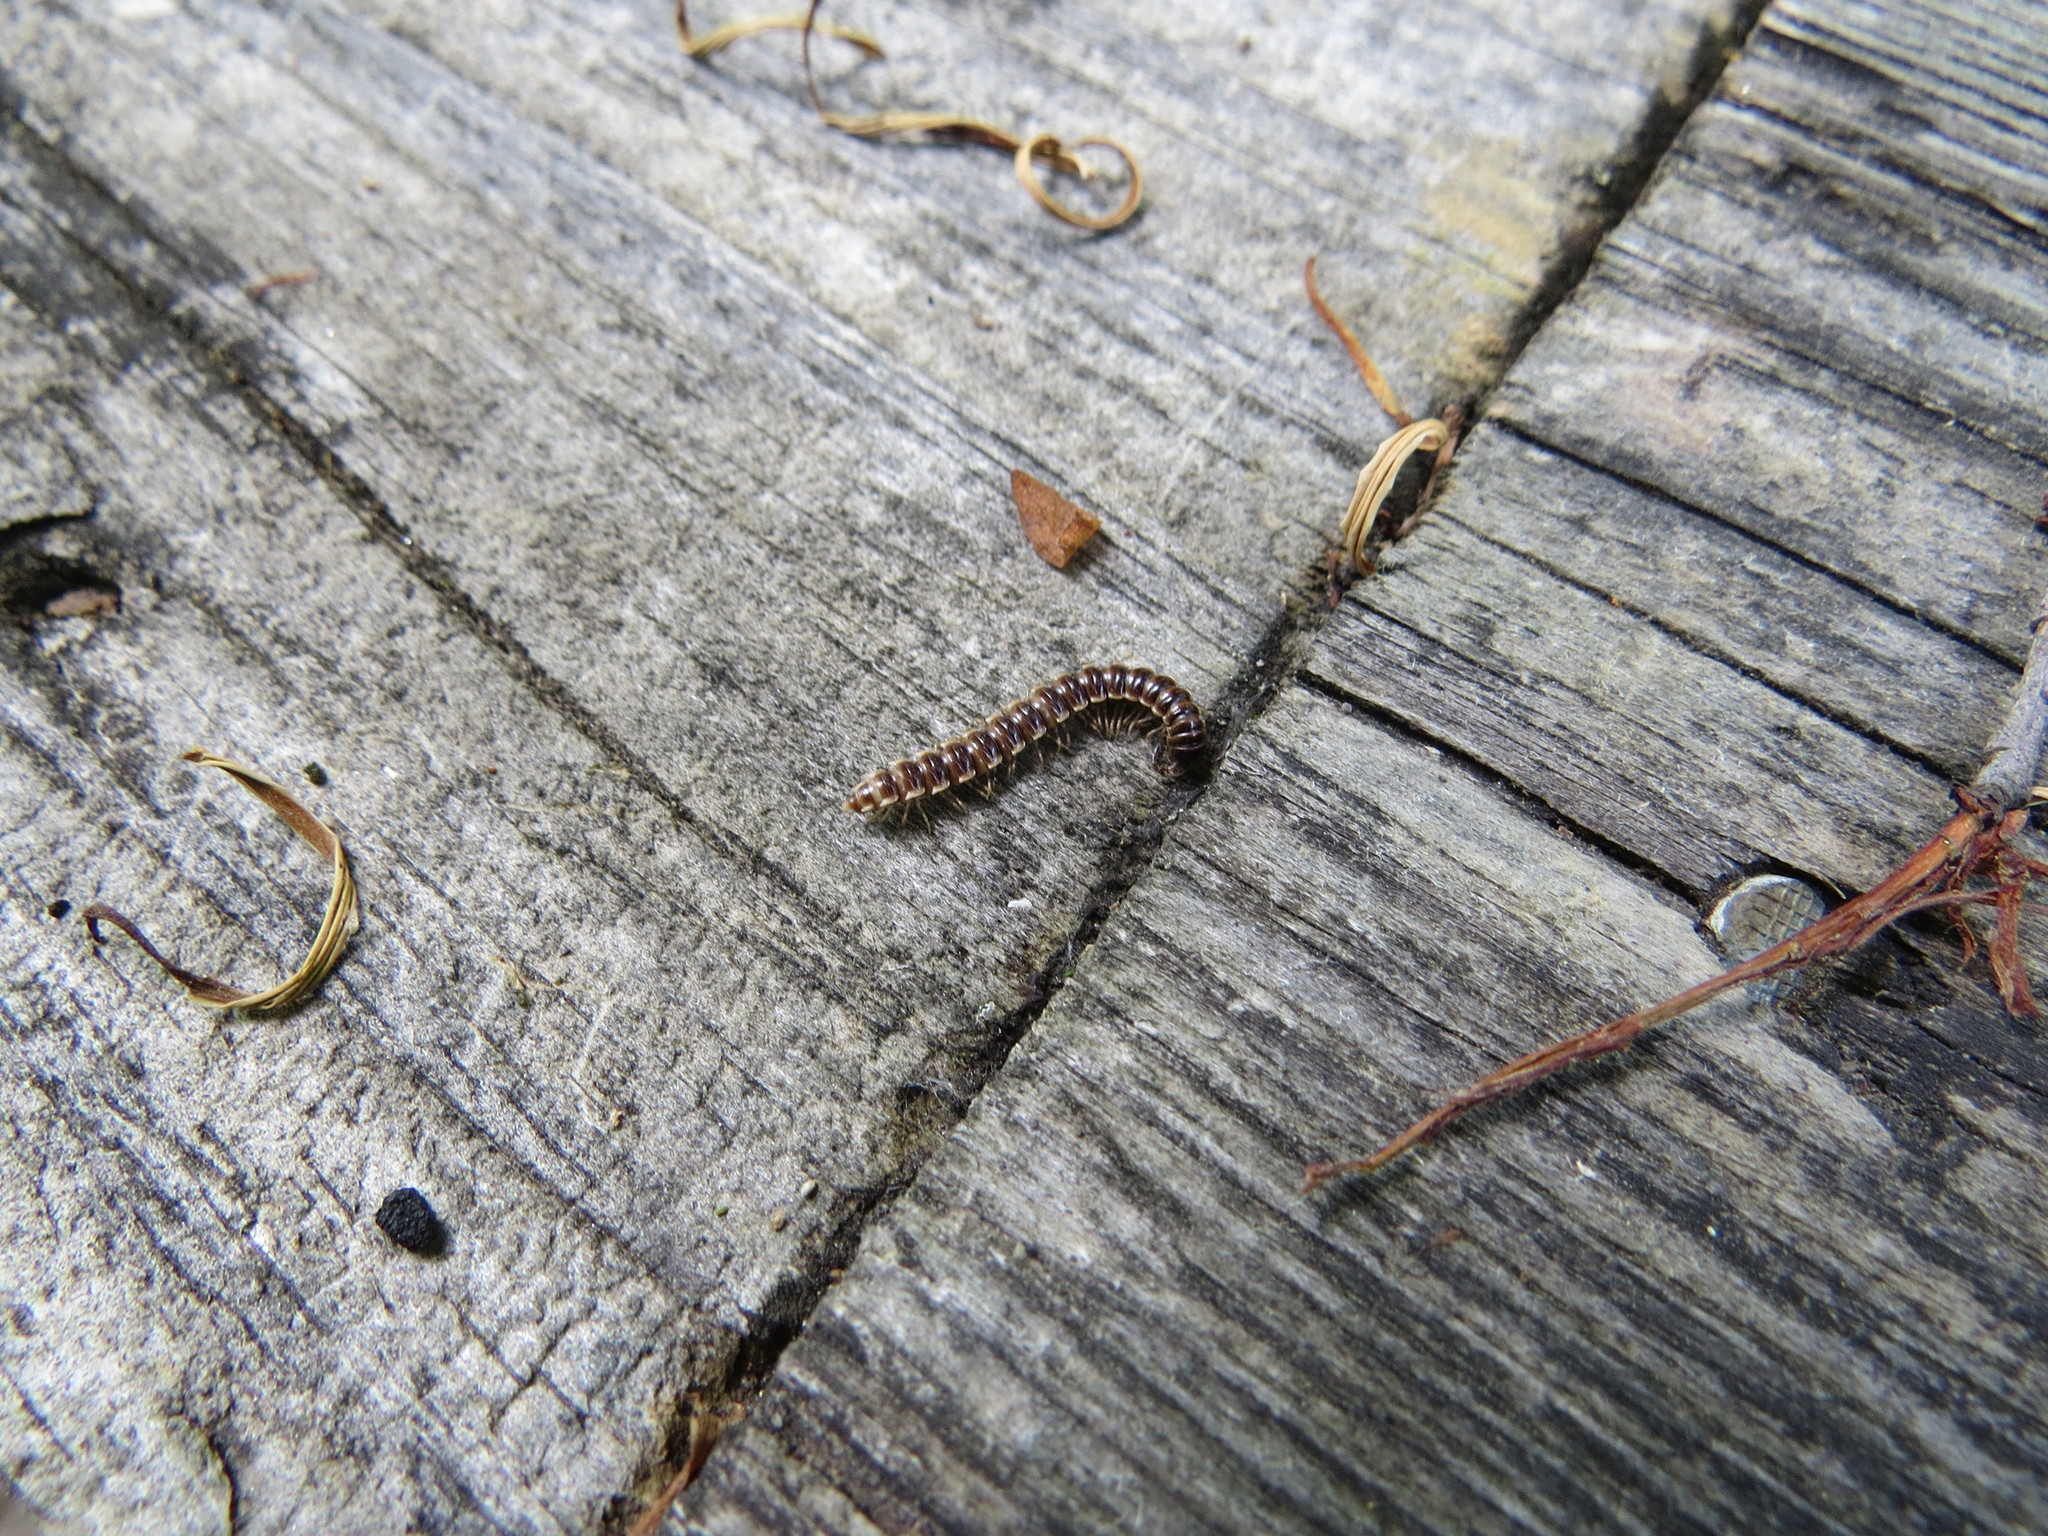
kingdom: Animalia
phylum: Arthropoda
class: Diplopoda
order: Polydesmida
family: Paradoxosomatidae
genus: Oxidus
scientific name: Oxidus gracilis
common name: Greenhouse millipede
